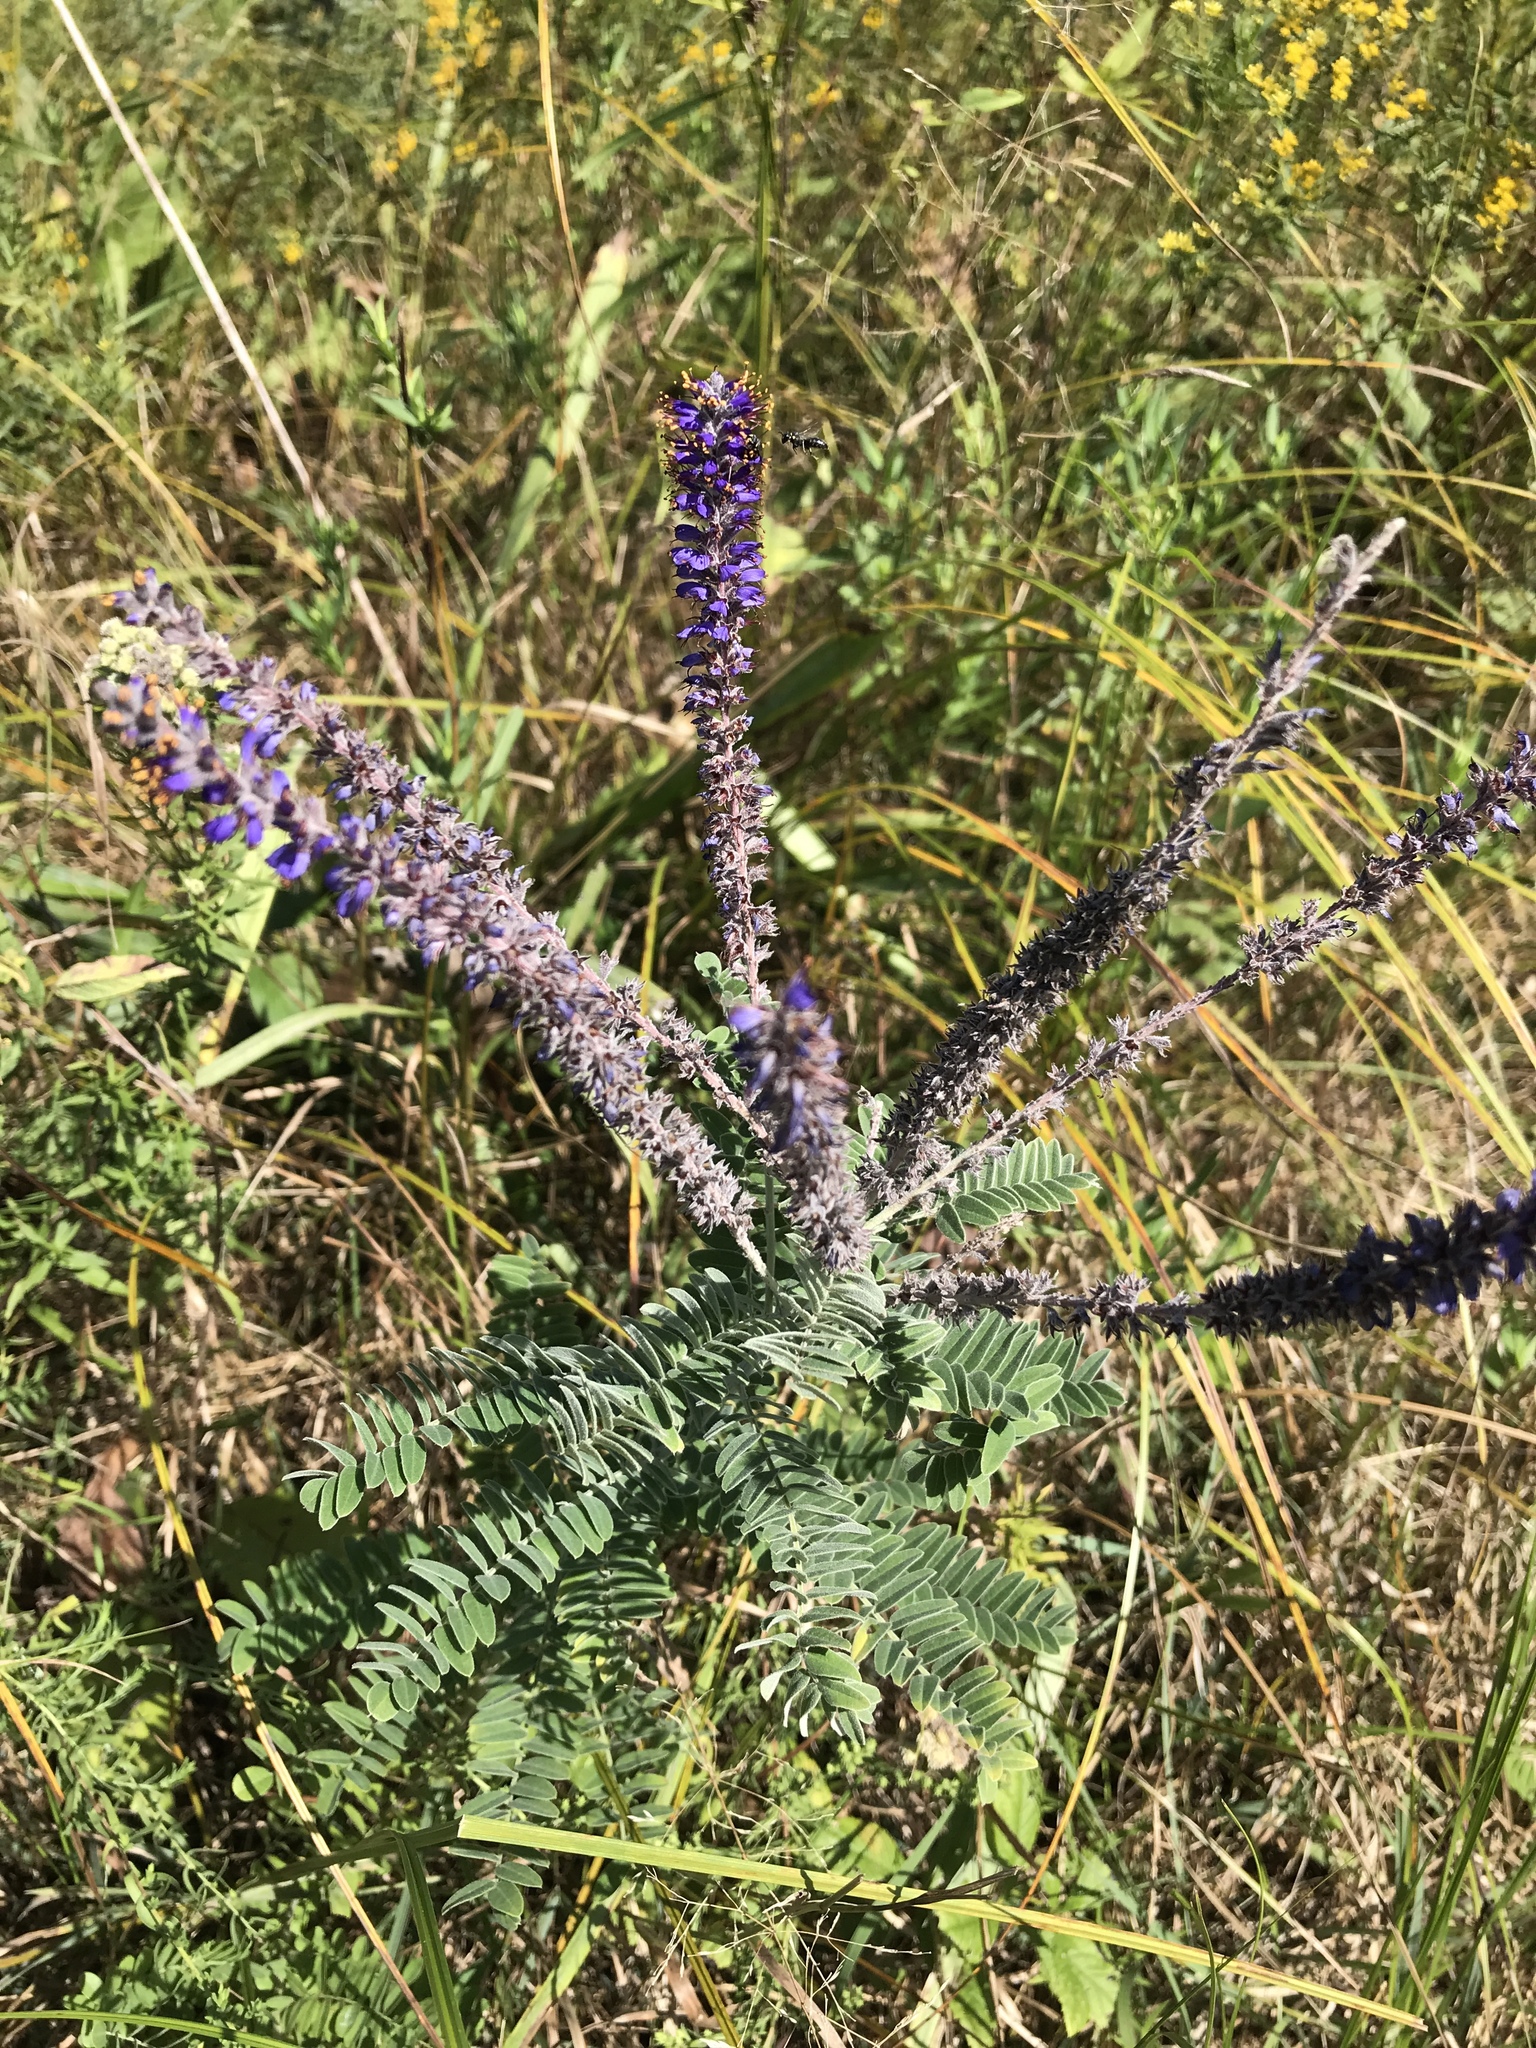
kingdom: Plantae
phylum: Tracheophyta
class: Magnoliopsida
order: Fabales
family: Fabaceae
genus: Amorpha
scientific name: Amorpha canescens
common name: Leadplant
